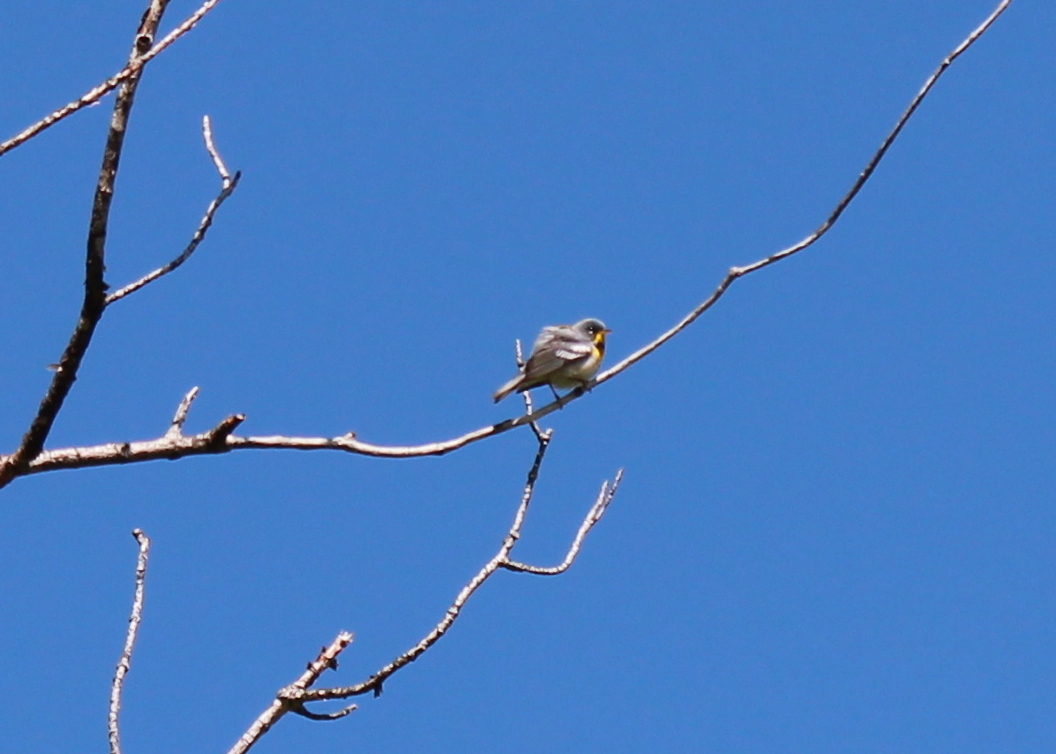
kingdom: Animalia
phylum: Chordata
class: Aves
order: Passeriformes
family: Parulidae
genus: Setophaga
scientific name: Setophaga americana
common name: Northern parula
